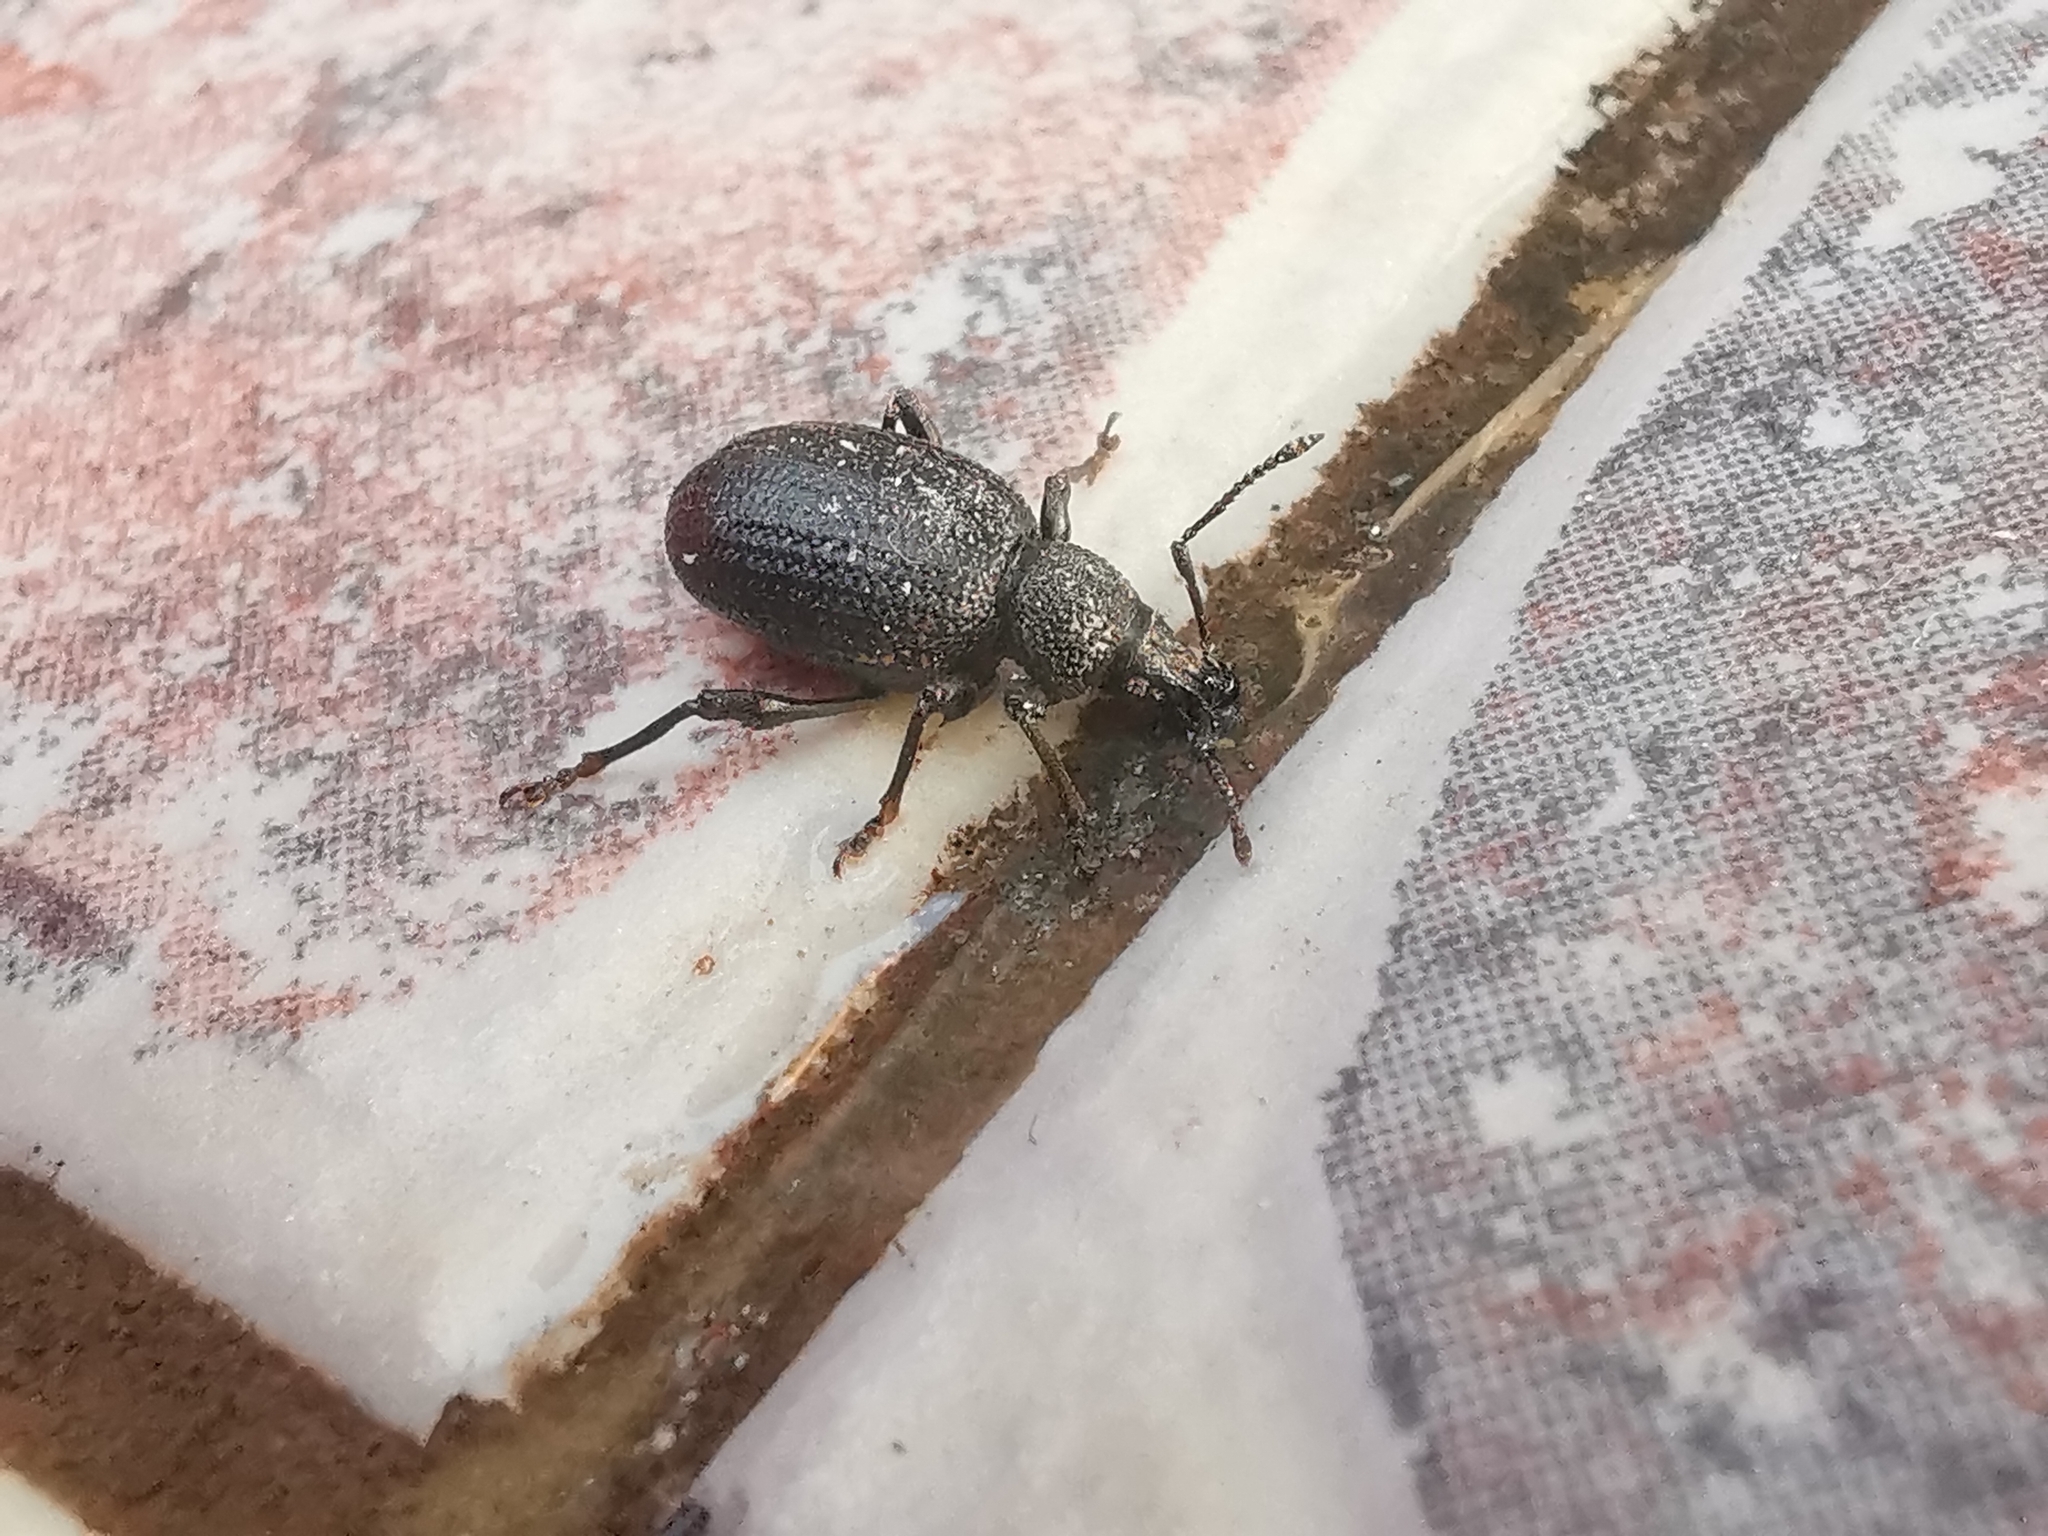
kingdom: Animalia
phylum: Arthropoda
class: Insecta
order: Coleoptera
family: Curculionidae
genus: Otiorhynchus
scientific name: Otiorhynchus lugens
